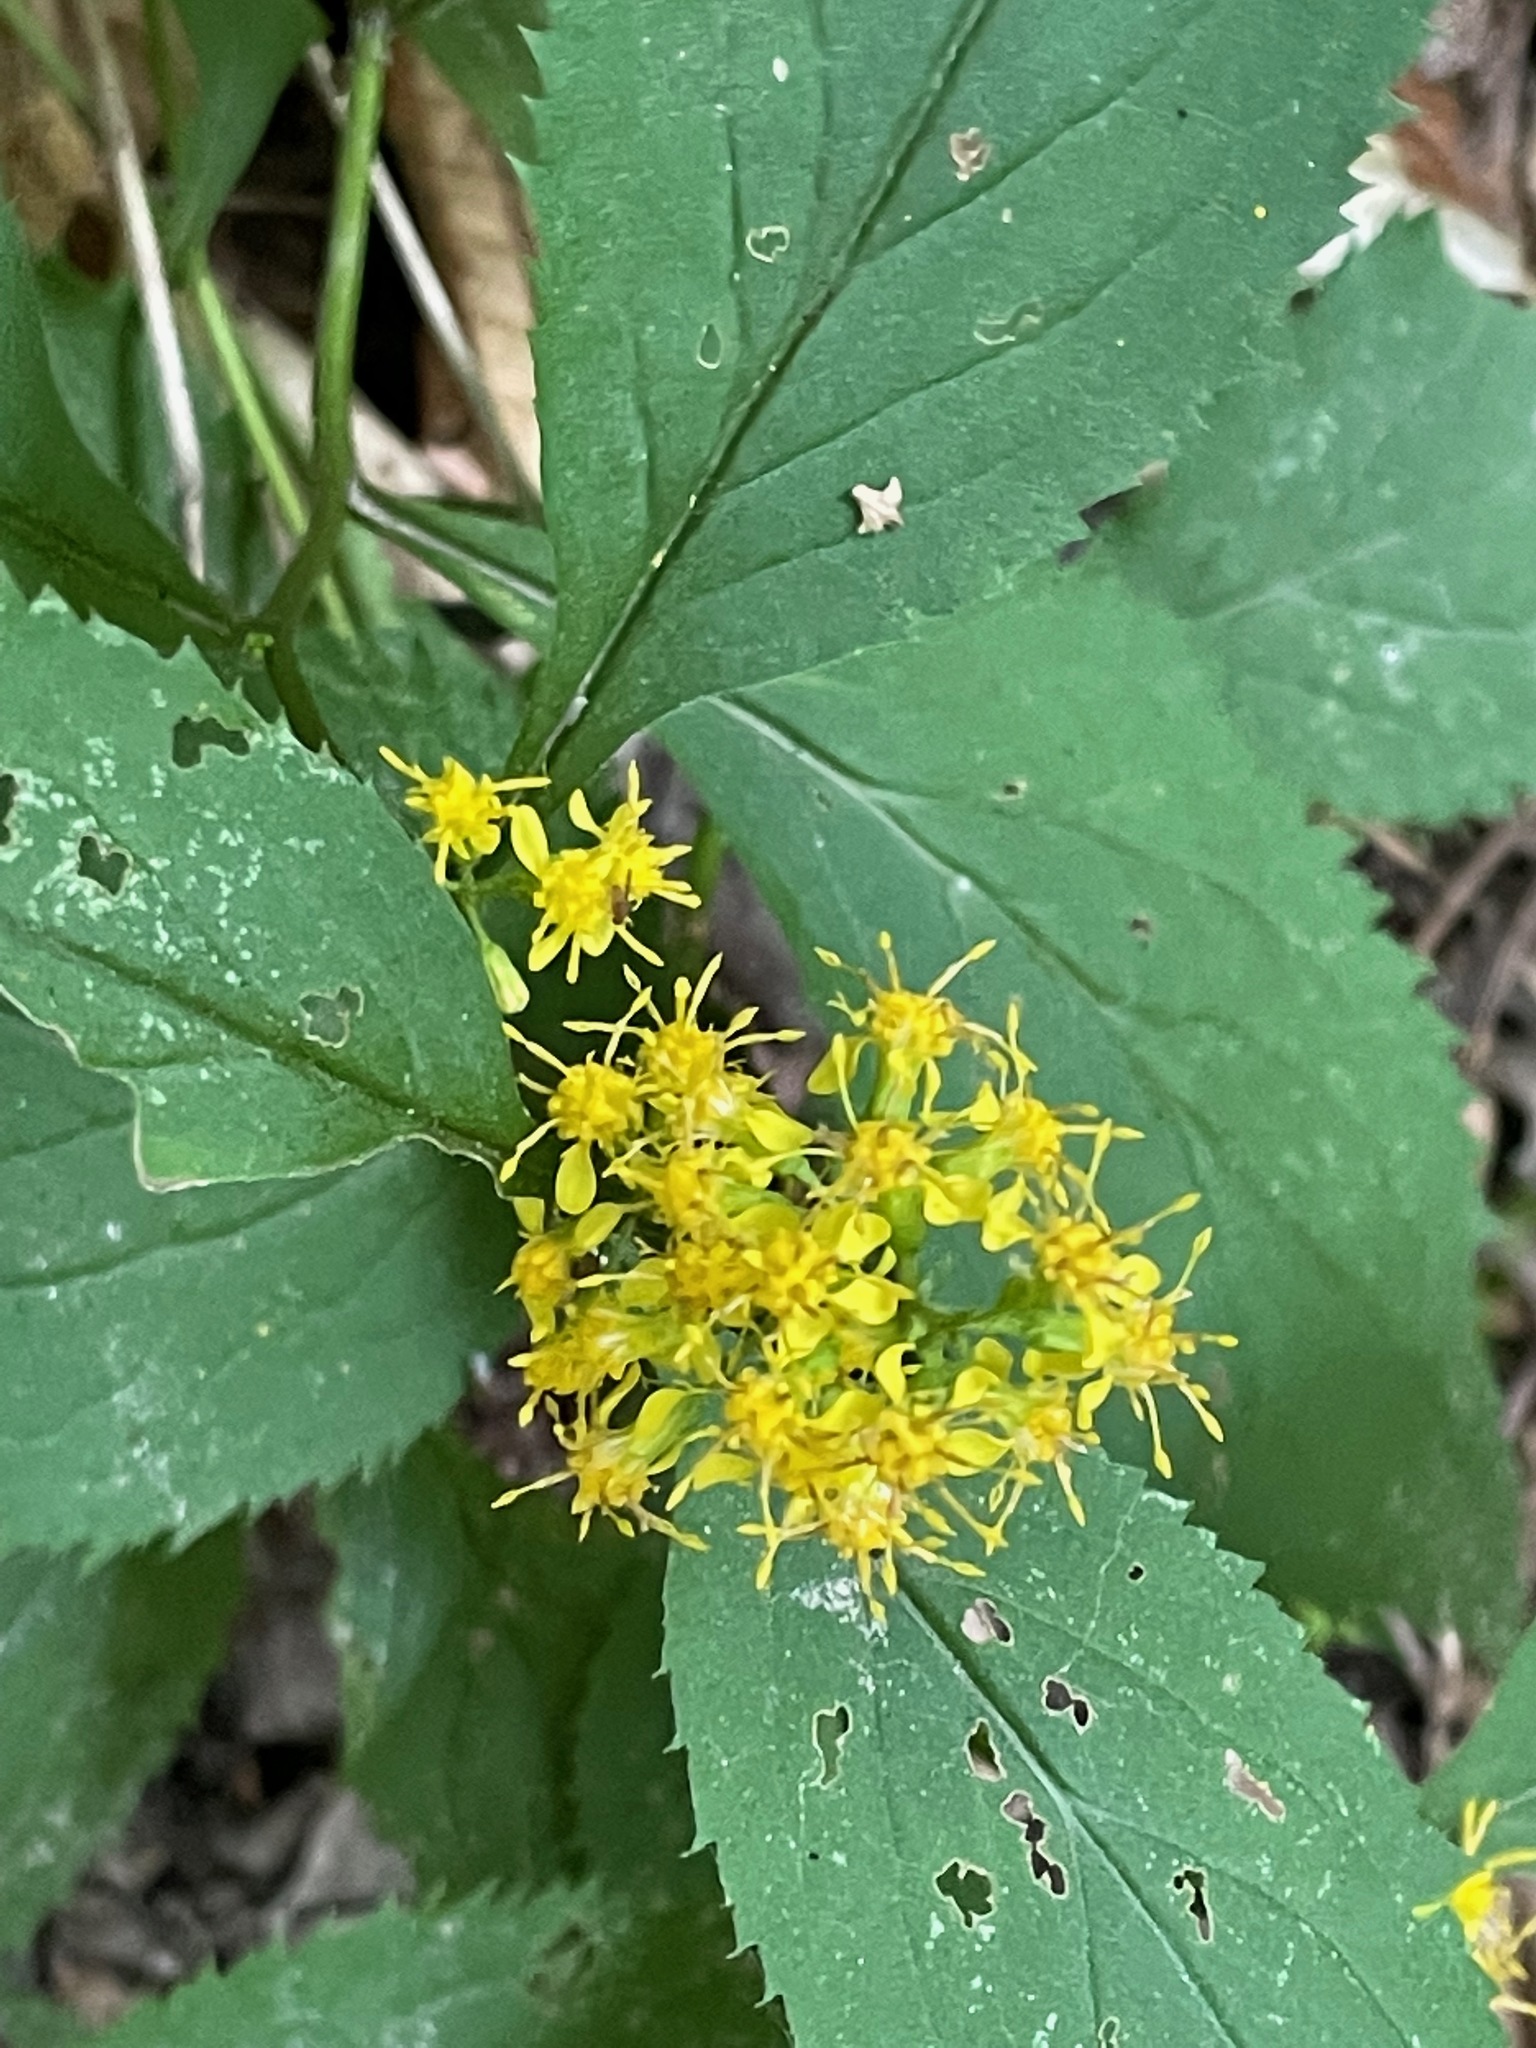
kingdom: Plantae
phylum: Tracheophyta
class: Magnoliopsida
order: Asterales
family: Asteraceae
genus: Solidago
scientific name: Solidago flexicaulis
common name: Zig-zag goldenrod
